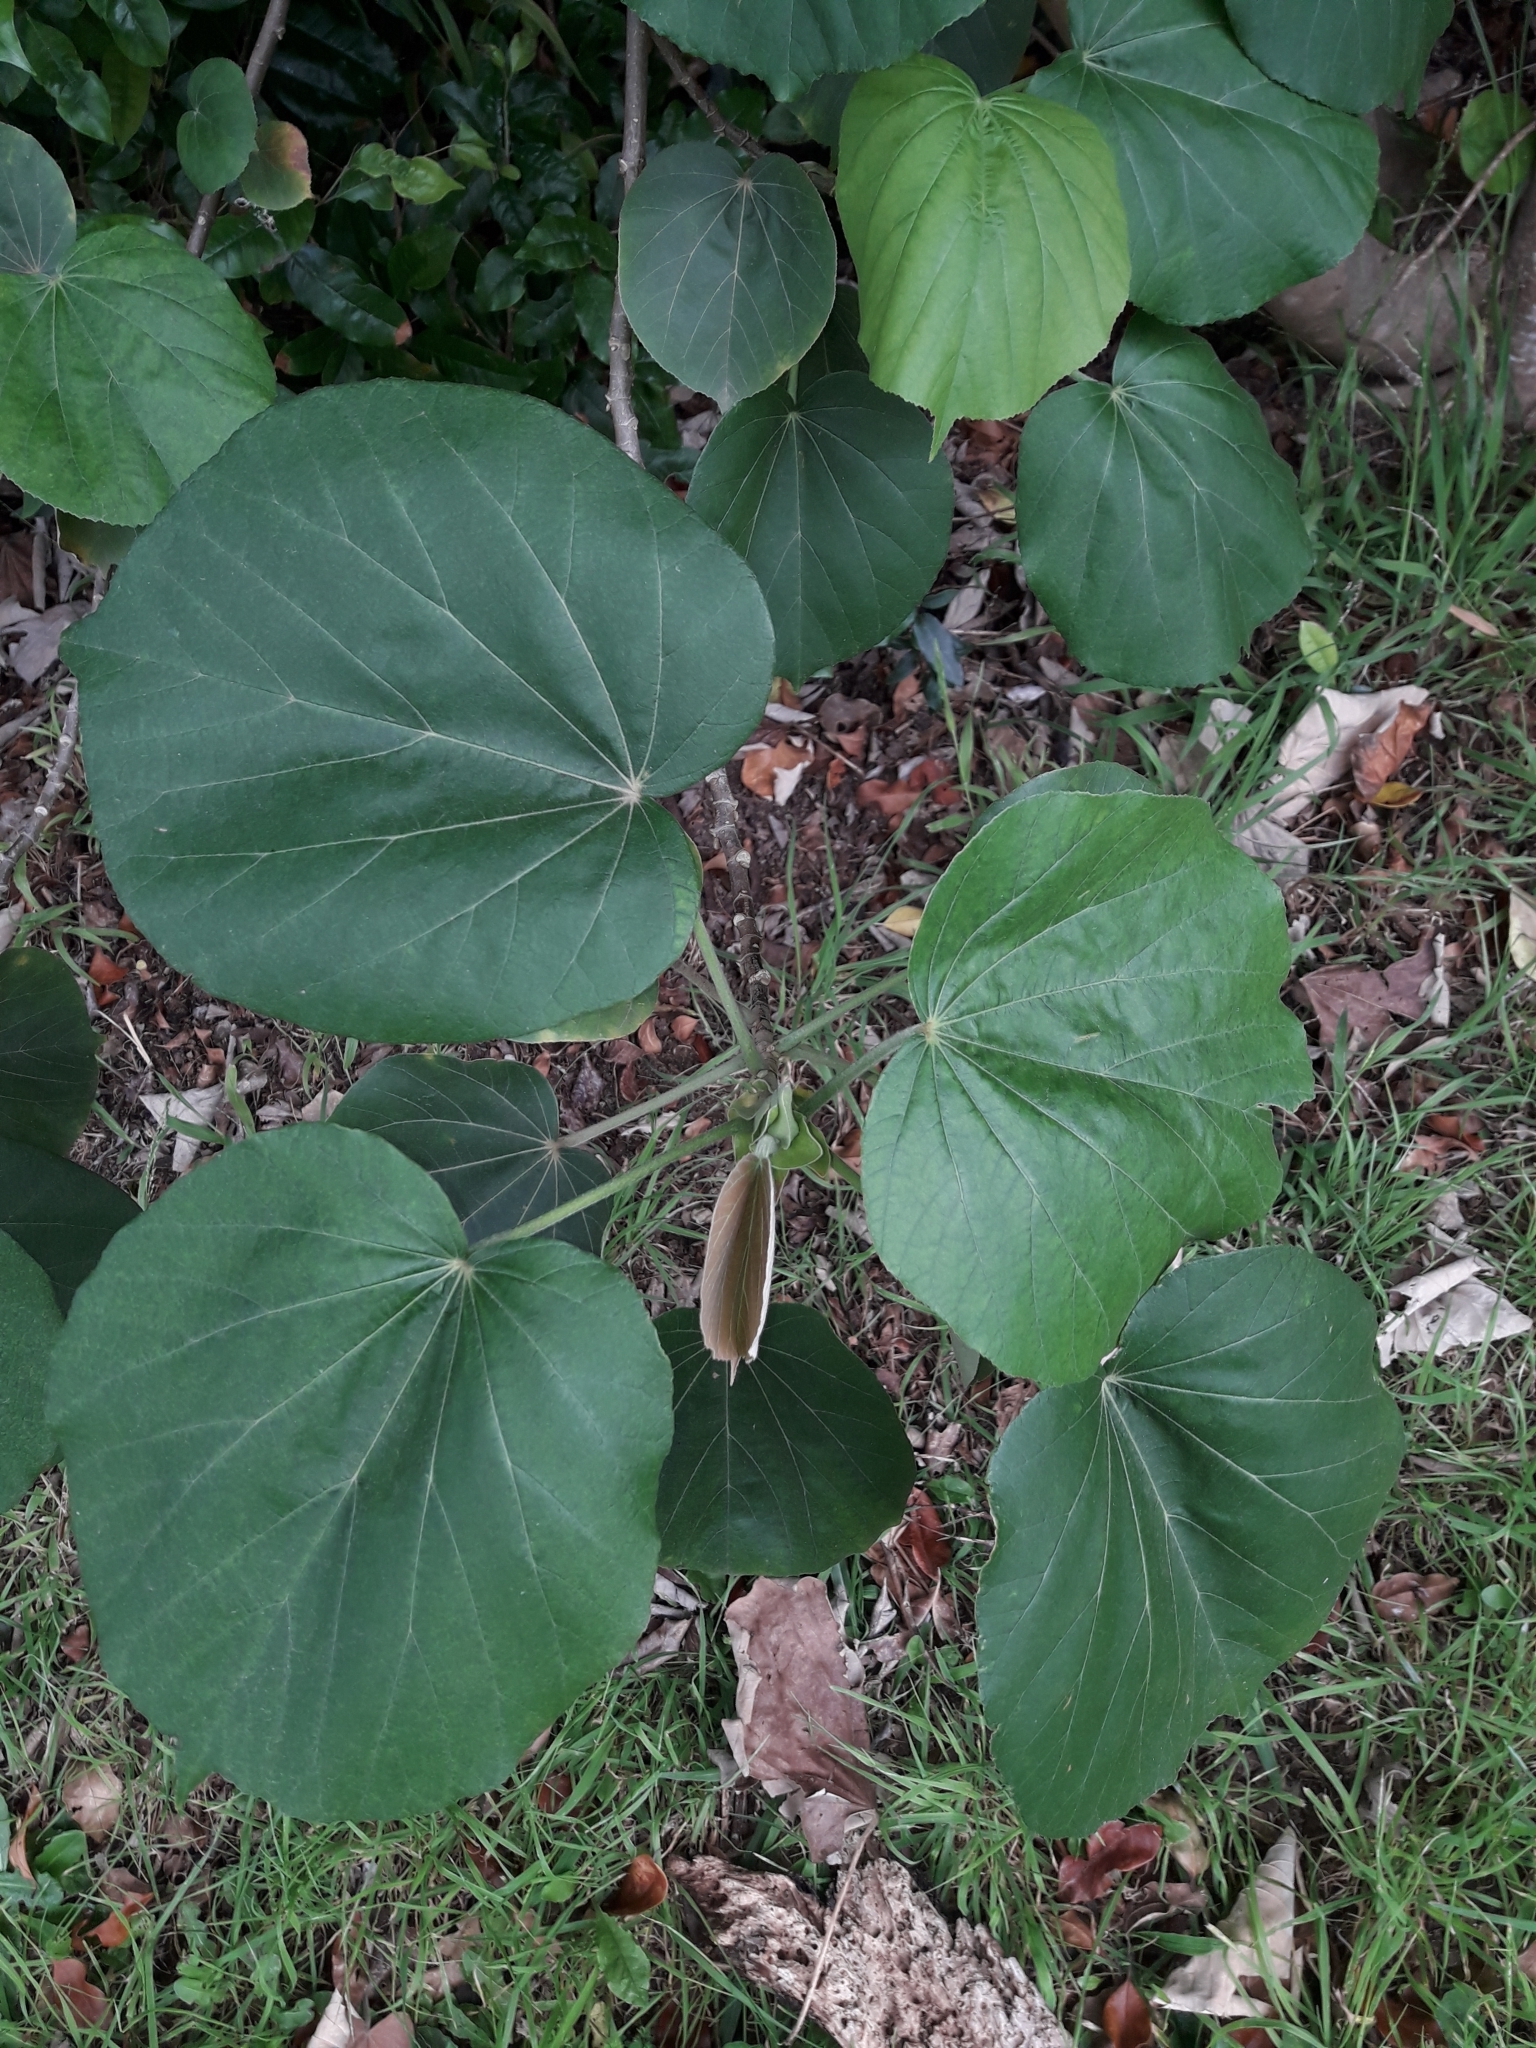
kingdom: Plantae
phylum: Tracheophyta
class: Magnoliopsida
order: Malvales
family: Malvaceae
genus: Talipariti
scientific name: Talipariti tiliaceum
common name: Sea hibiscus
